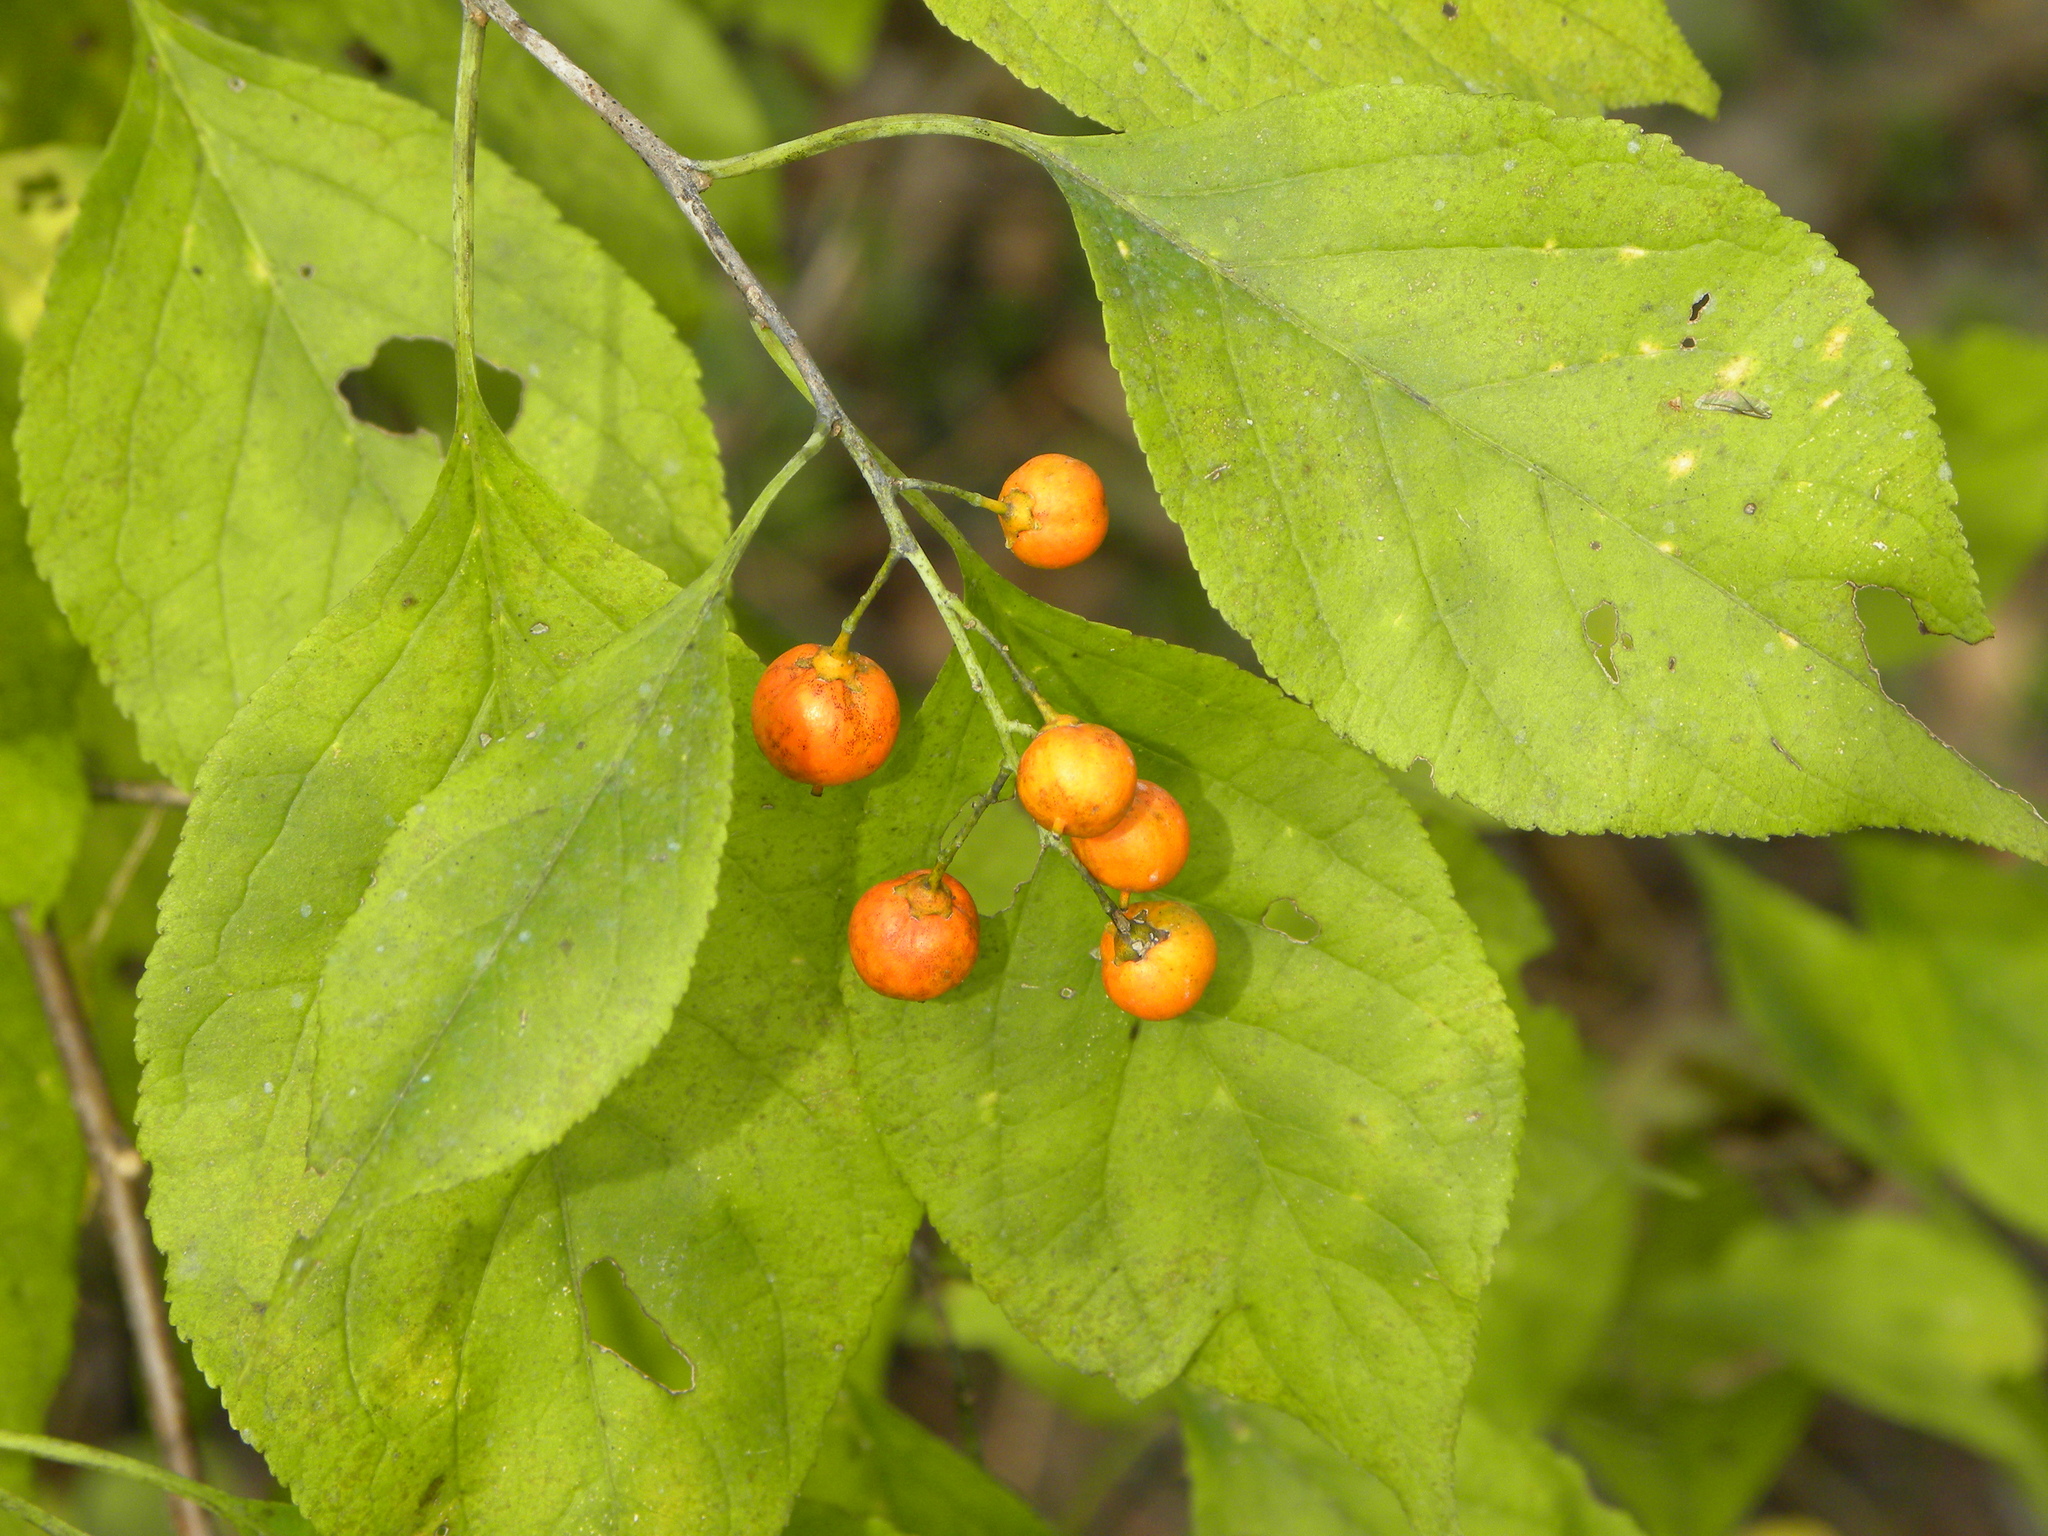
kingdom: Plantae
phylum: Tracheophyta
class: Magnoliopsida
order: Celastrales
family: Celastraceae
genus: Celastrus
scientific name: Celastrus scandens
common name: American bittersweet
